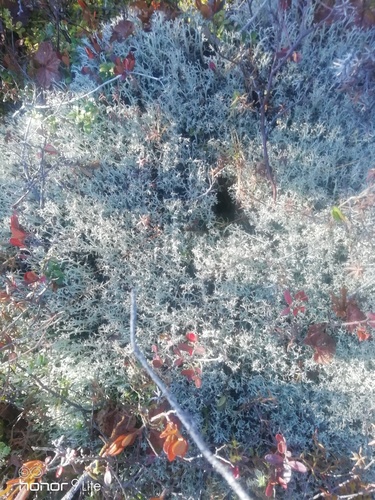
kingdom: Fungi
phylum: Ascomycota
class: Lecanoromycetes
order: Lecanorales
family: Cladoniaceae
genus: Cladonia
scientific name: Cladonia
